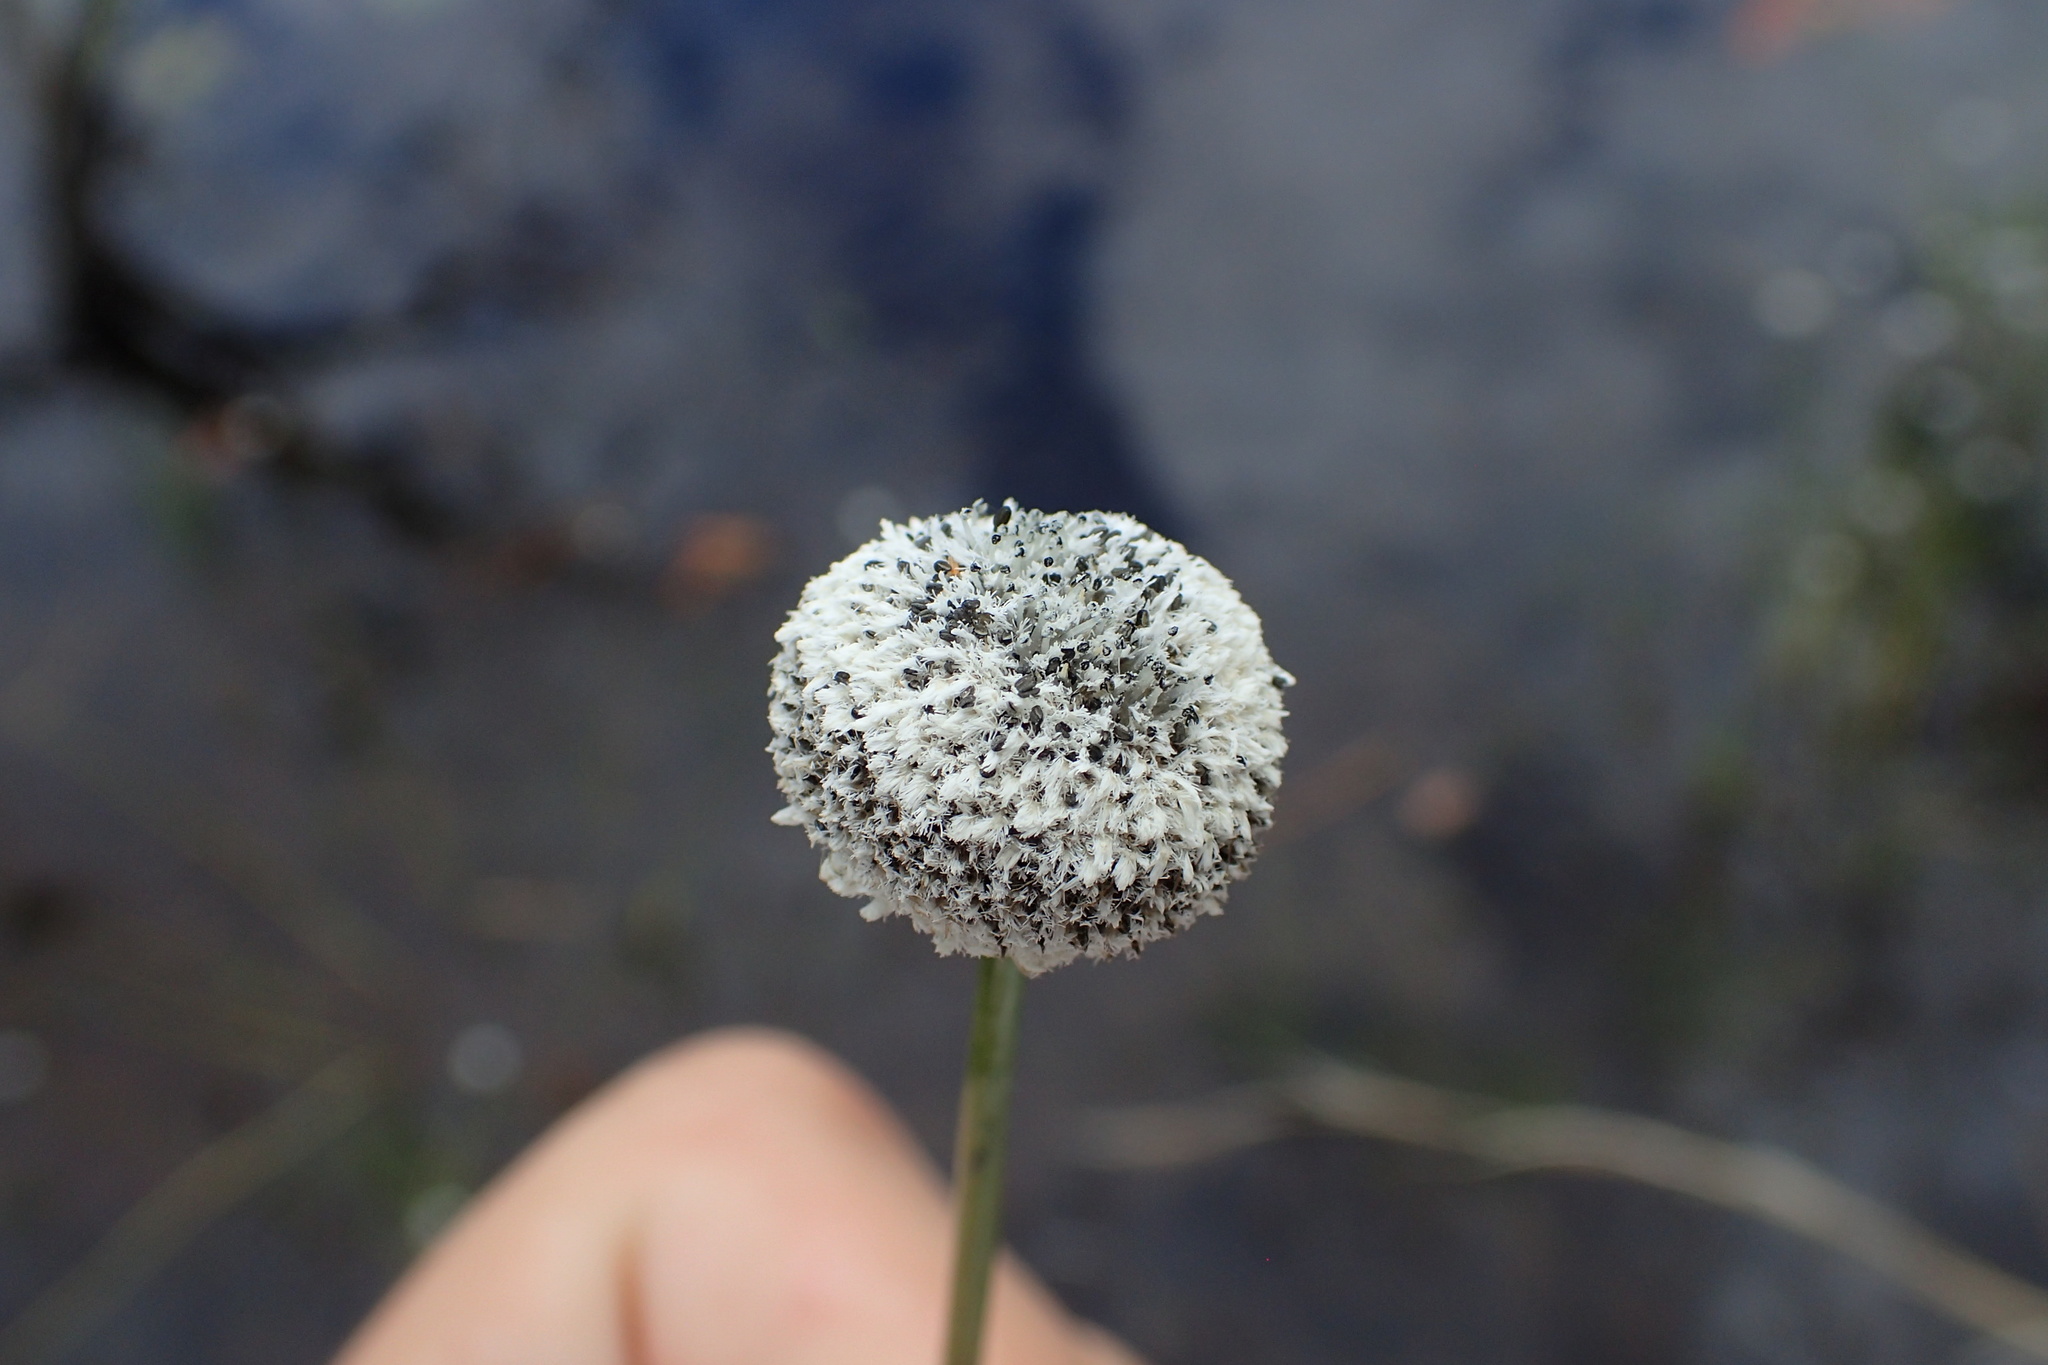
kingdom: Plantae
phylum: Tracheophyta
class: Liliopsida
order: Poales
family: Eriocaulaceae
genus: Eriocaulon
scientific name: Eriocaulon compressum
